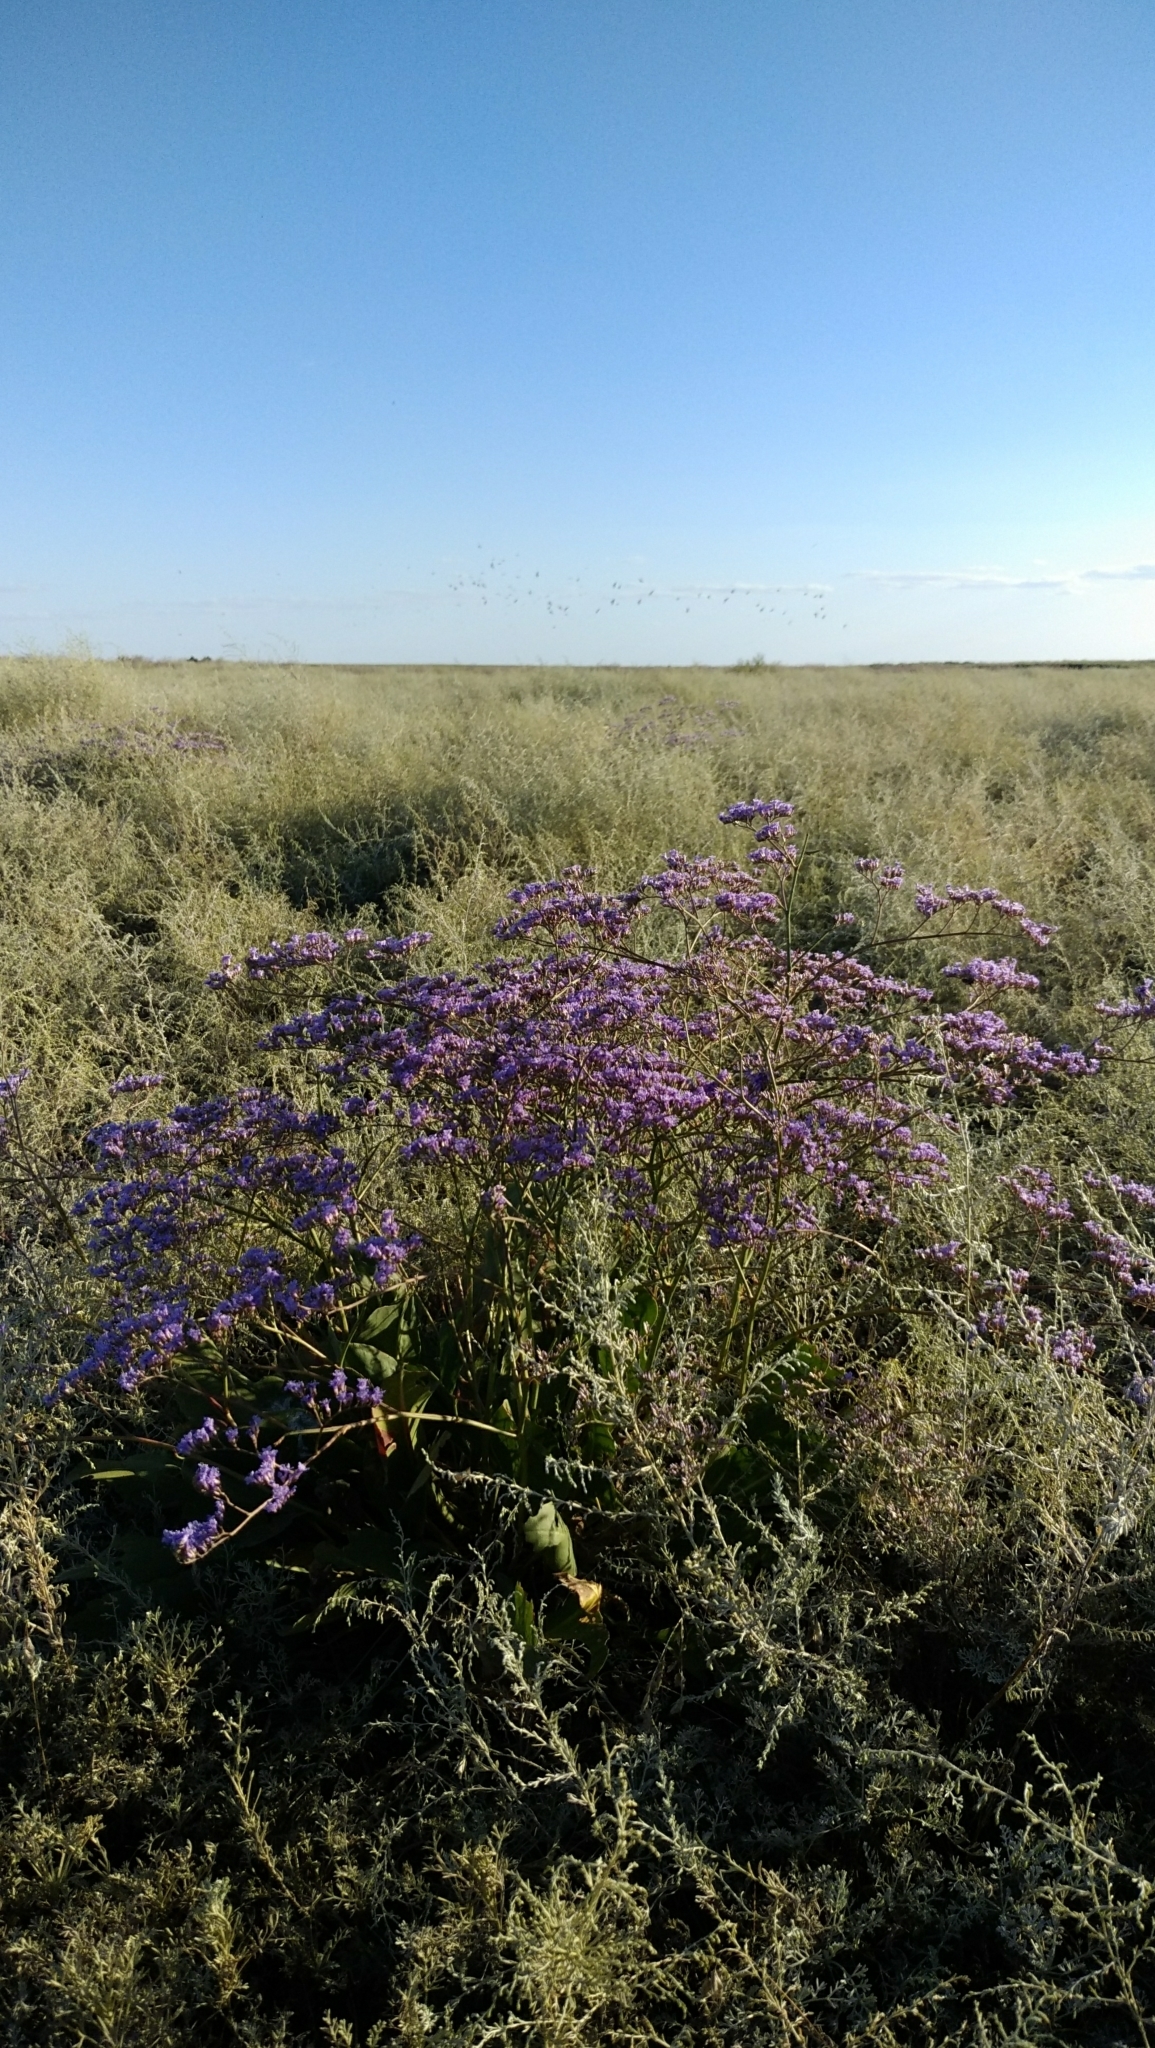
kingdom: Plantae
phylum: Tracheophyta
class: Magnoliopsida
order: Caryophyllales
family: Plumbaginaceae
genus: Limonium
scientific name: Limonium gmelini
